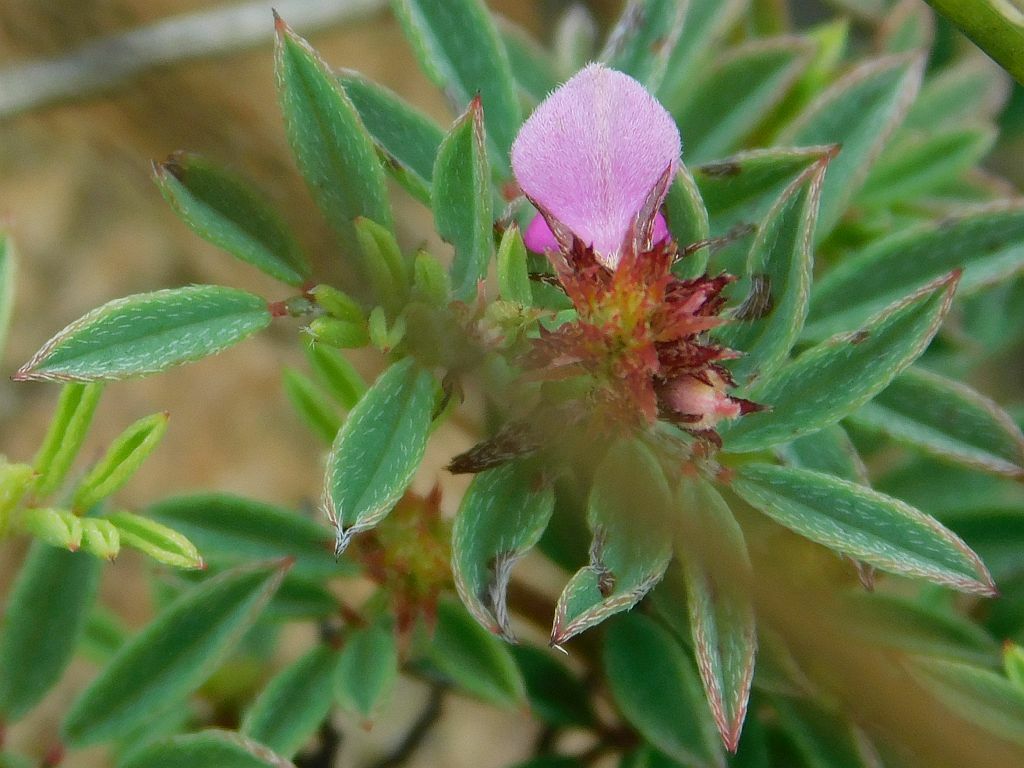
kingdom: Plantae
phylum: Tracheophyta
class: Magnoliopsida
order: Fabales
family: Fabaceae
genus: Indigofera
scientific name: Indigofera
